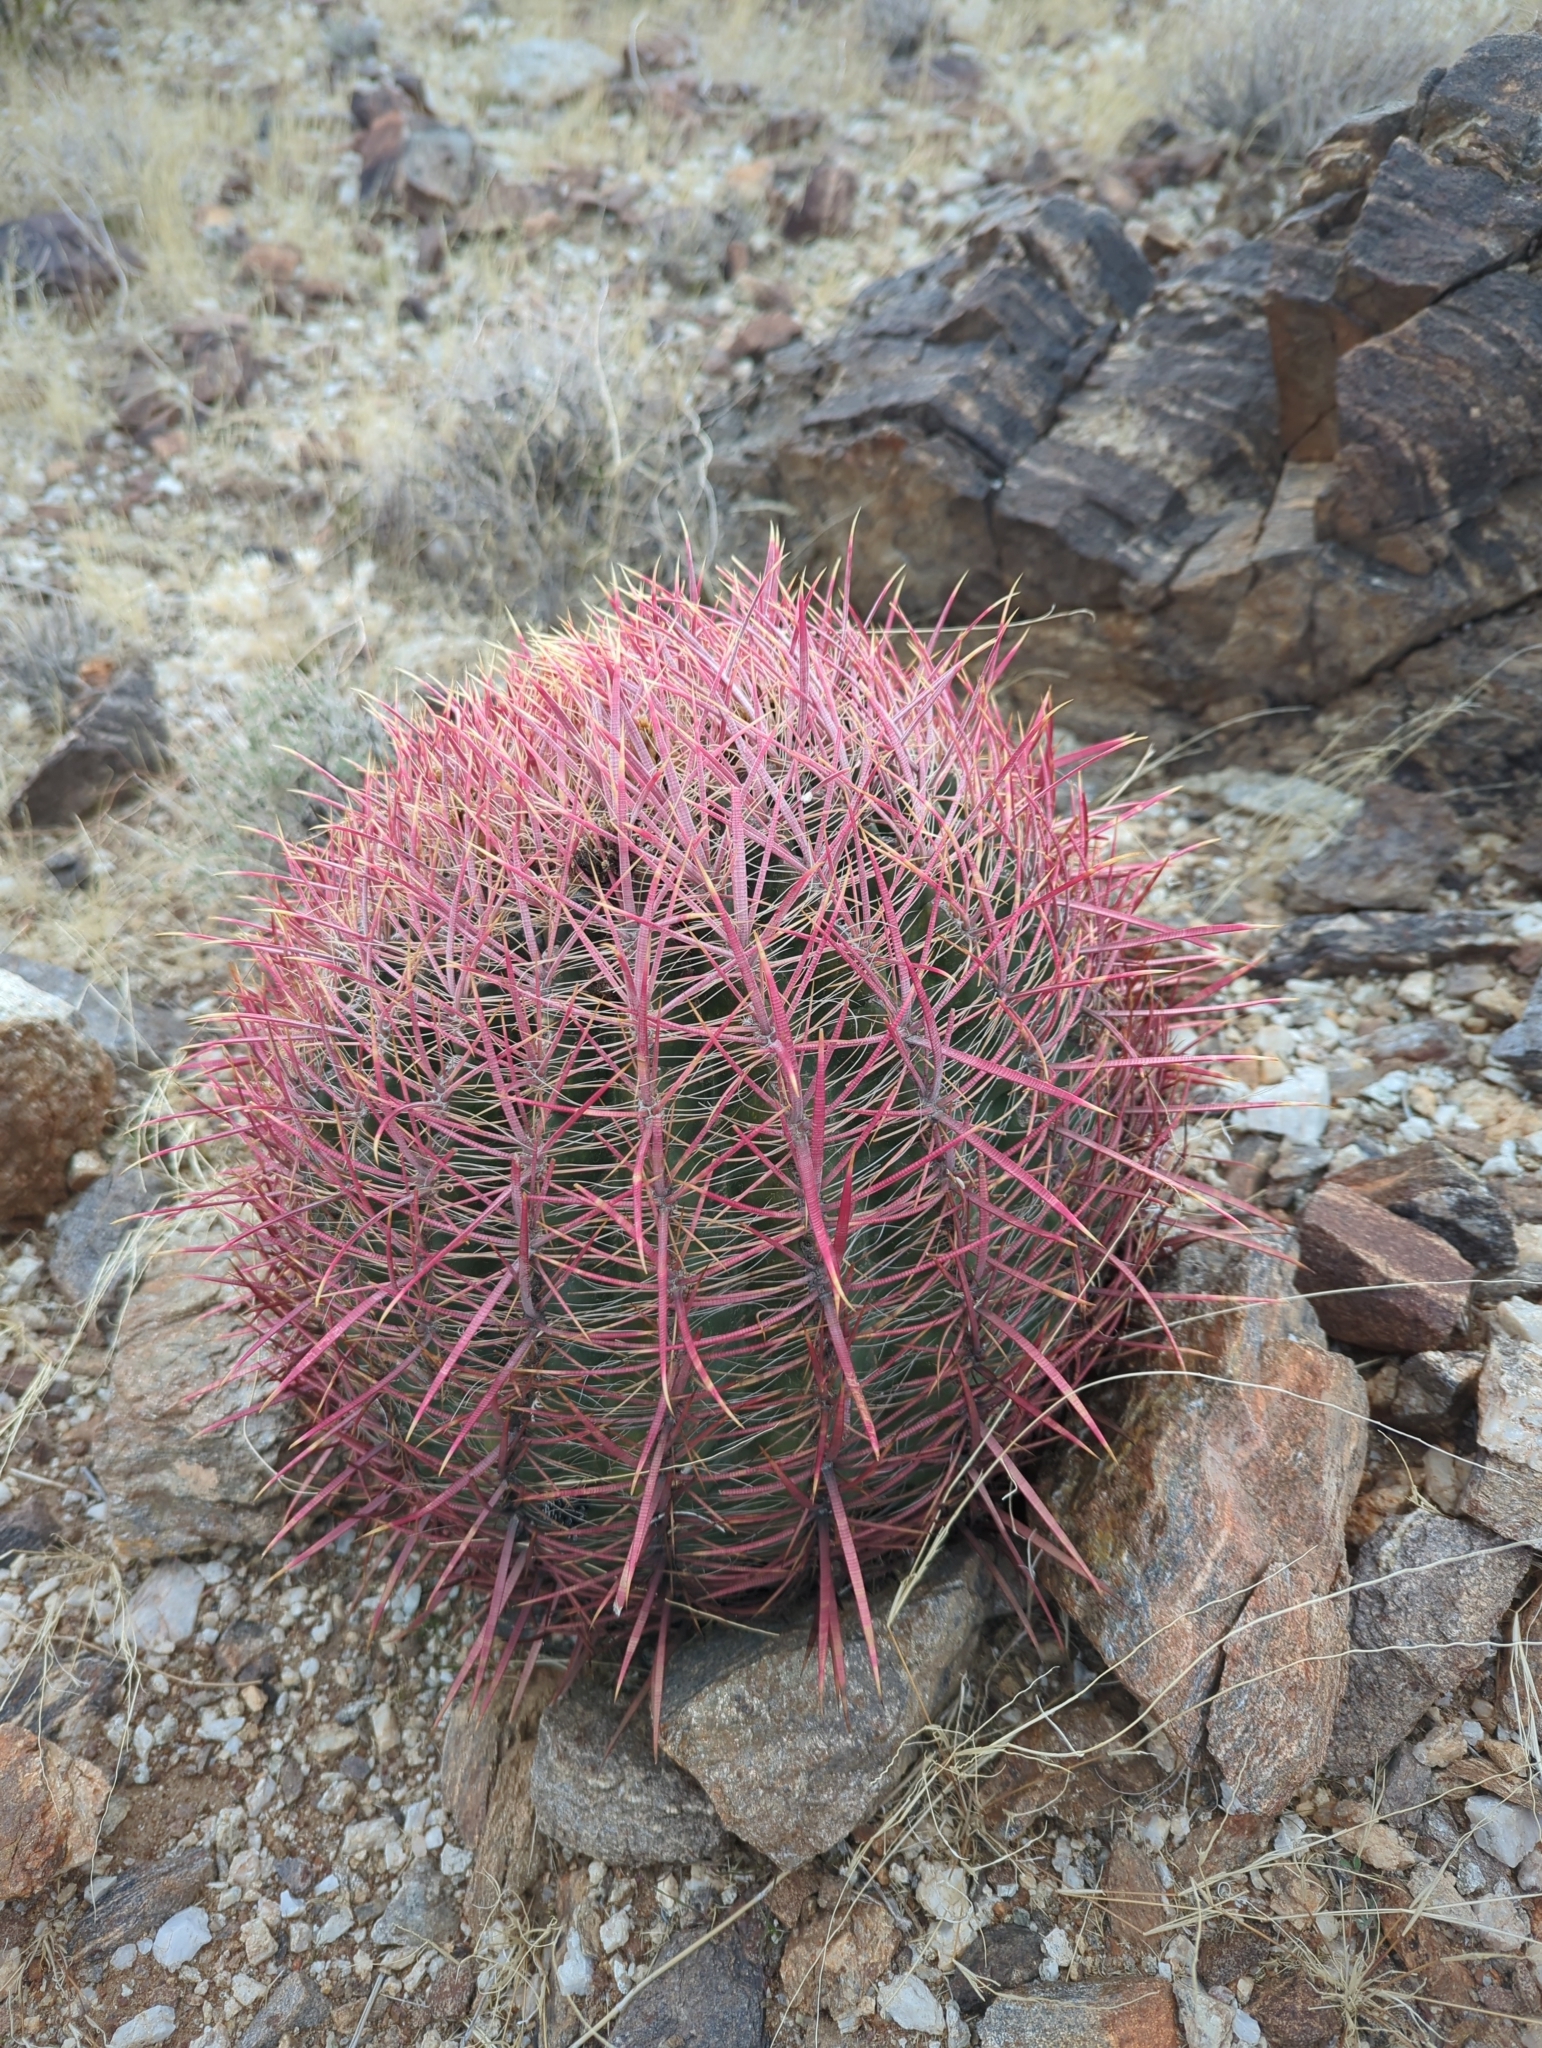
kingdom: Plantae
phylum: Tracheophyta
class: Magnoliopsida
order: Caryophyllales
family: Cactaceae
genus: Ferocactus
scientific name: Ferocactus cylindraceus
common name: California barrel cactus
